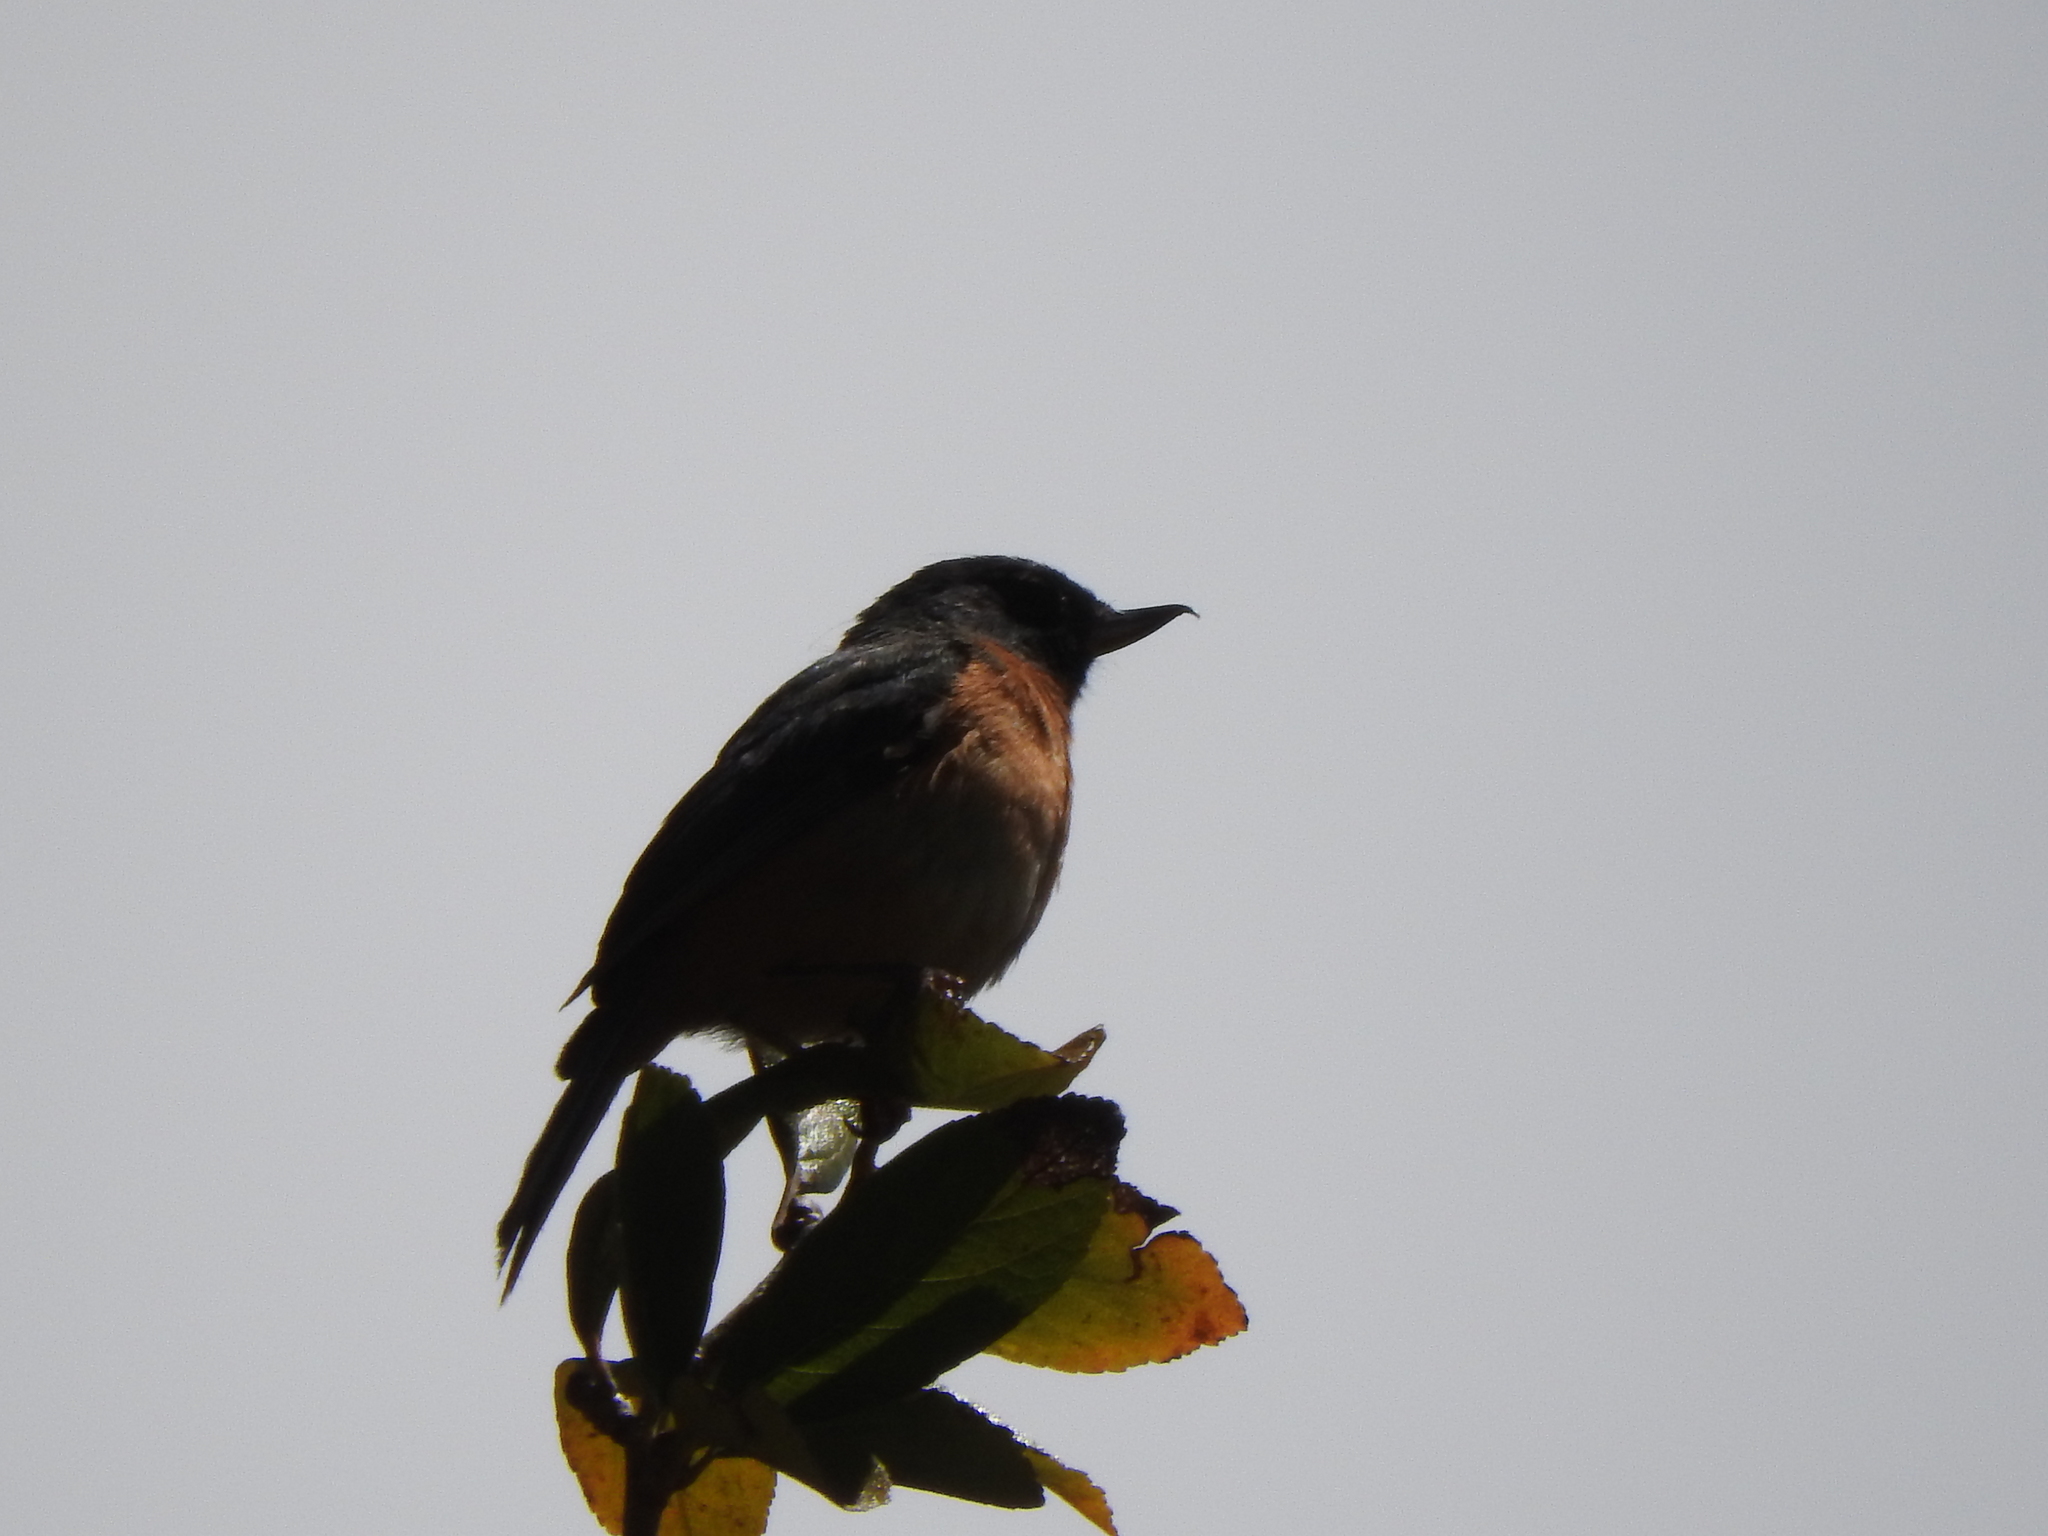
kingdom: Animalia
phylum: Chordata
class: Aves
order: Passeriformes
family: Thraupidae
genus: Diglossa
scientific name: Diglossa baritula
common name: Cinnamon-bellied flowerpiercer
